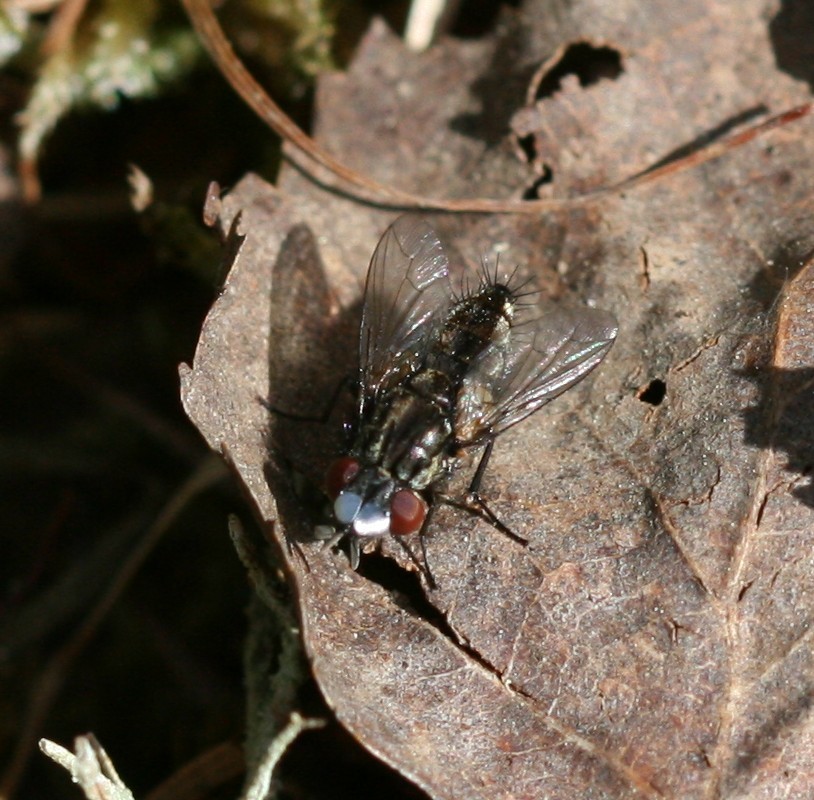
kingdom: Animalia
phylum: Arthropoda
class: Insecta
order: Diptera
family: Sarcophagidae
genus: Metopia
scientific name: Metopia
